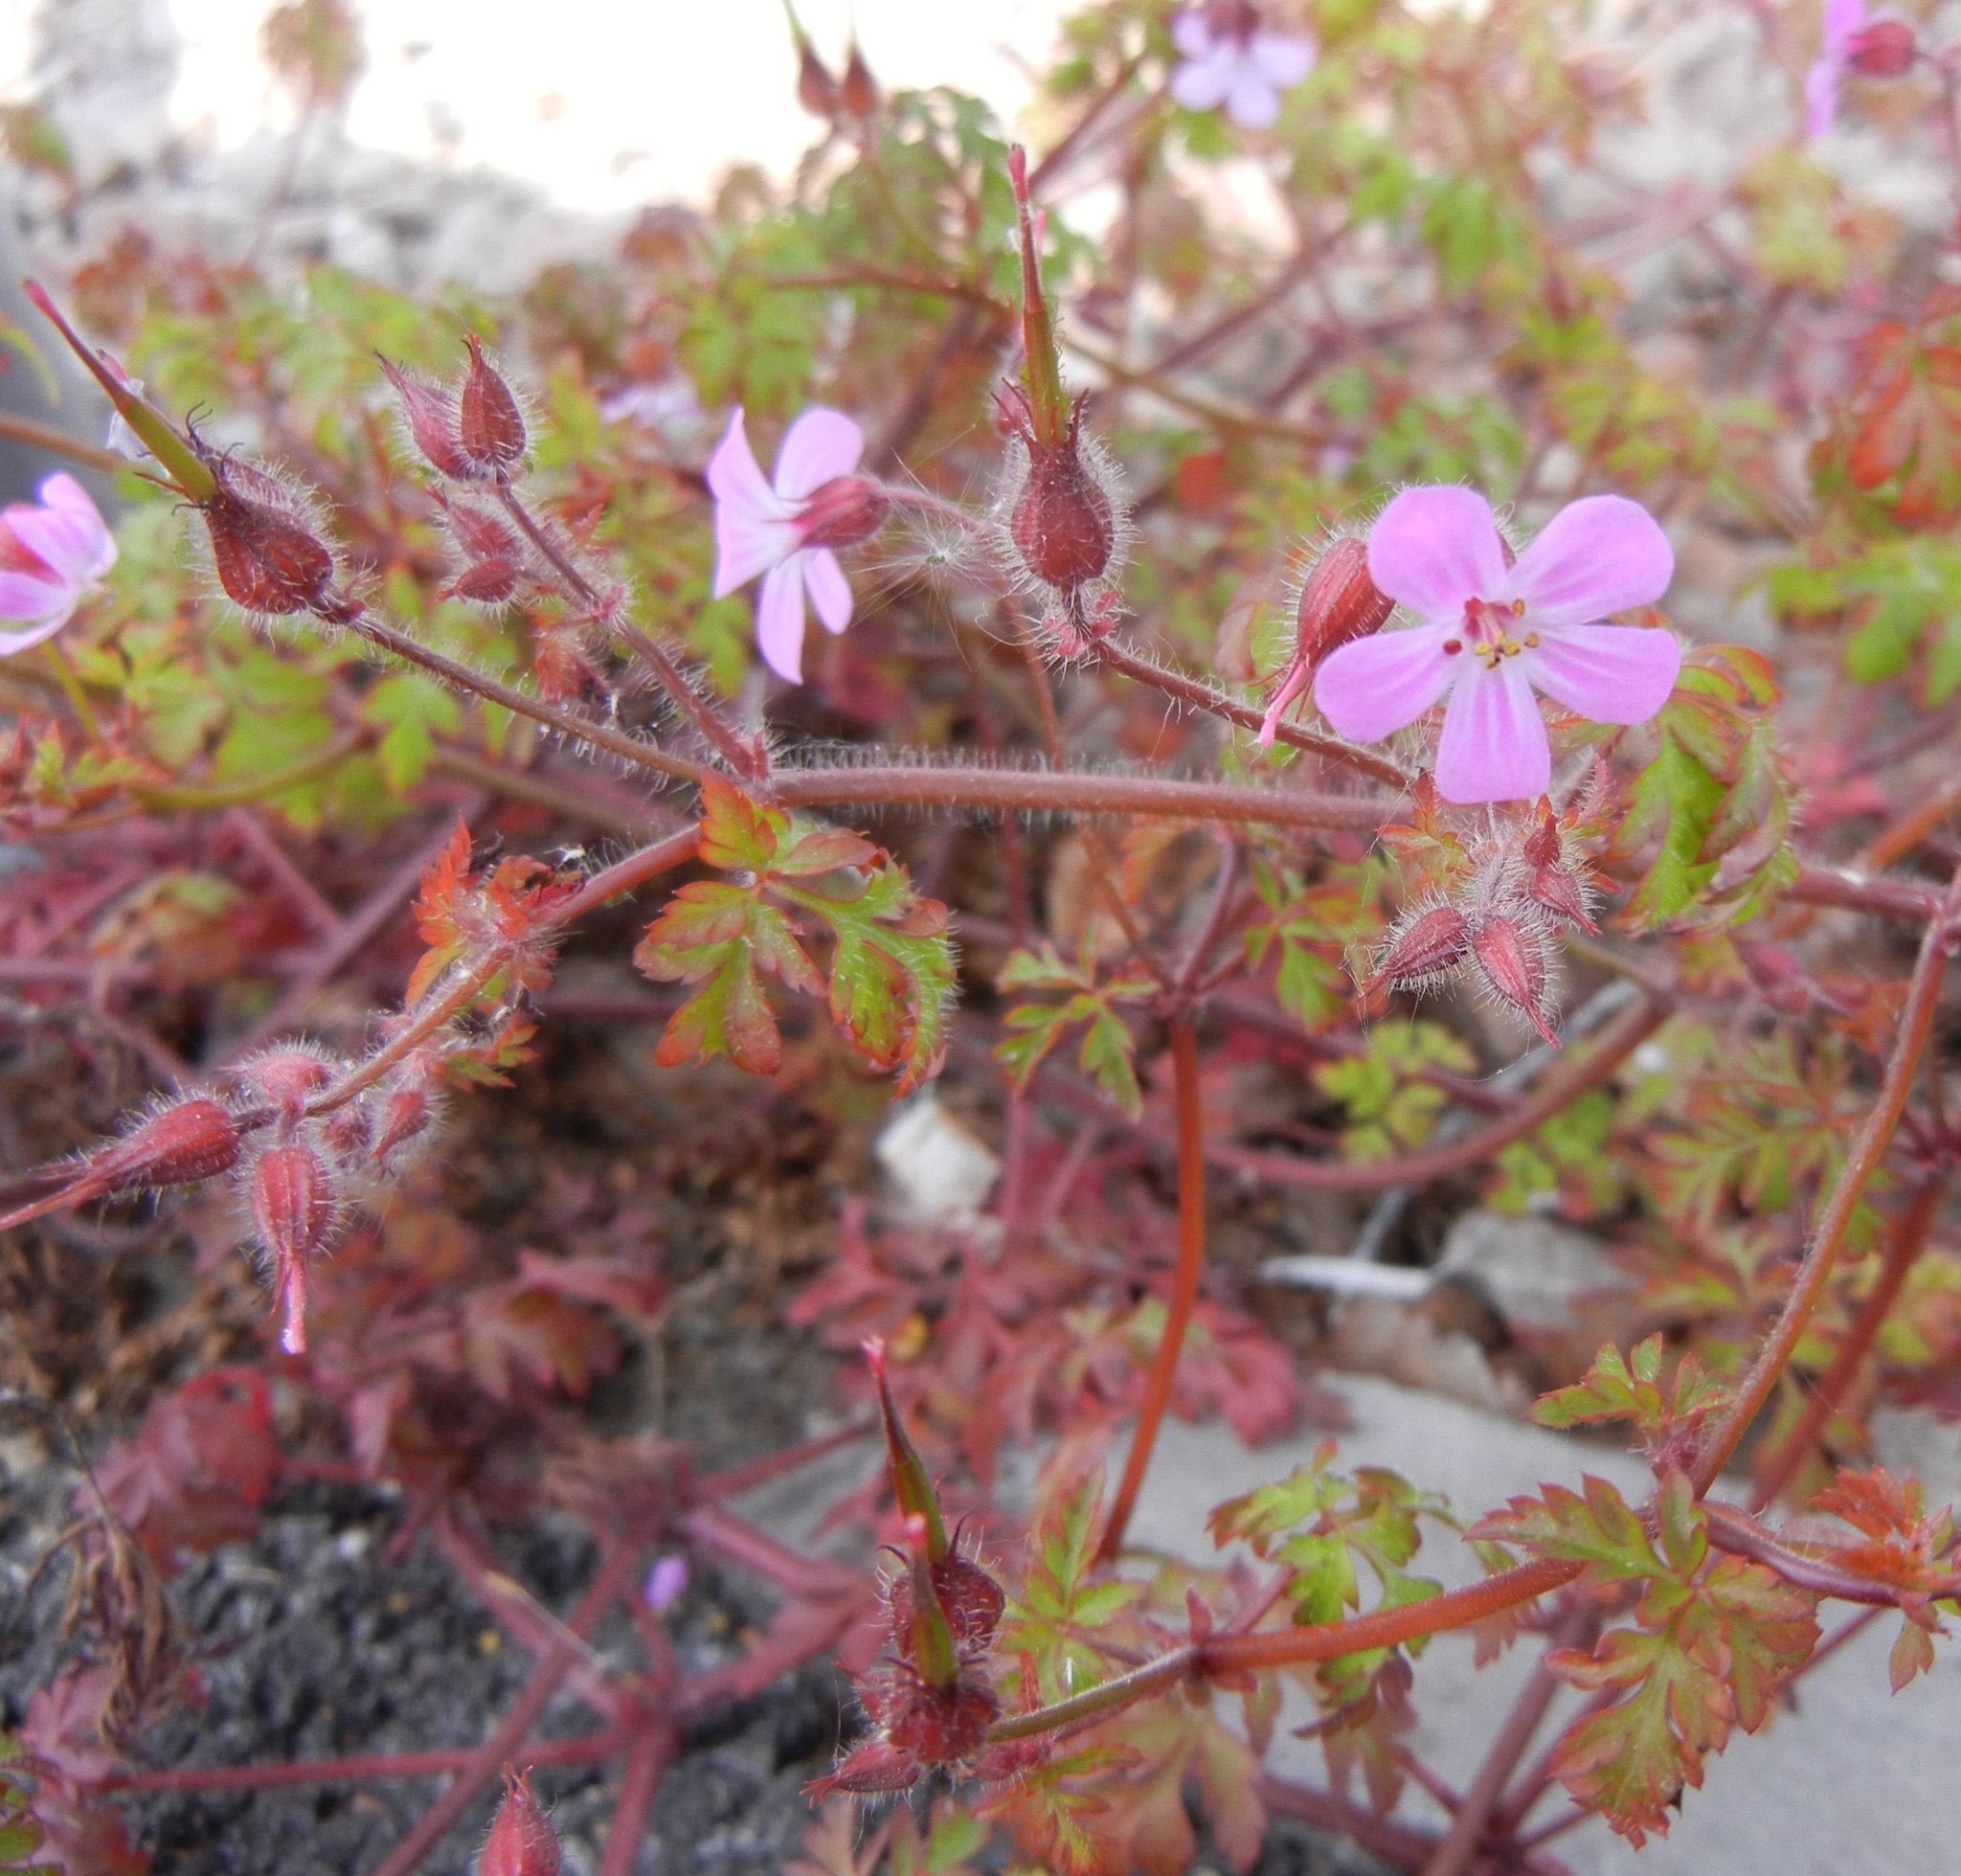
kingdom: Plantae
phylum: Tracheophyta
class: Magnoliopsida
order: Geraniales
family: Geraniaceae
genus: Geranium
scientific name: Geranium robertianum
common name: Herb-robert
